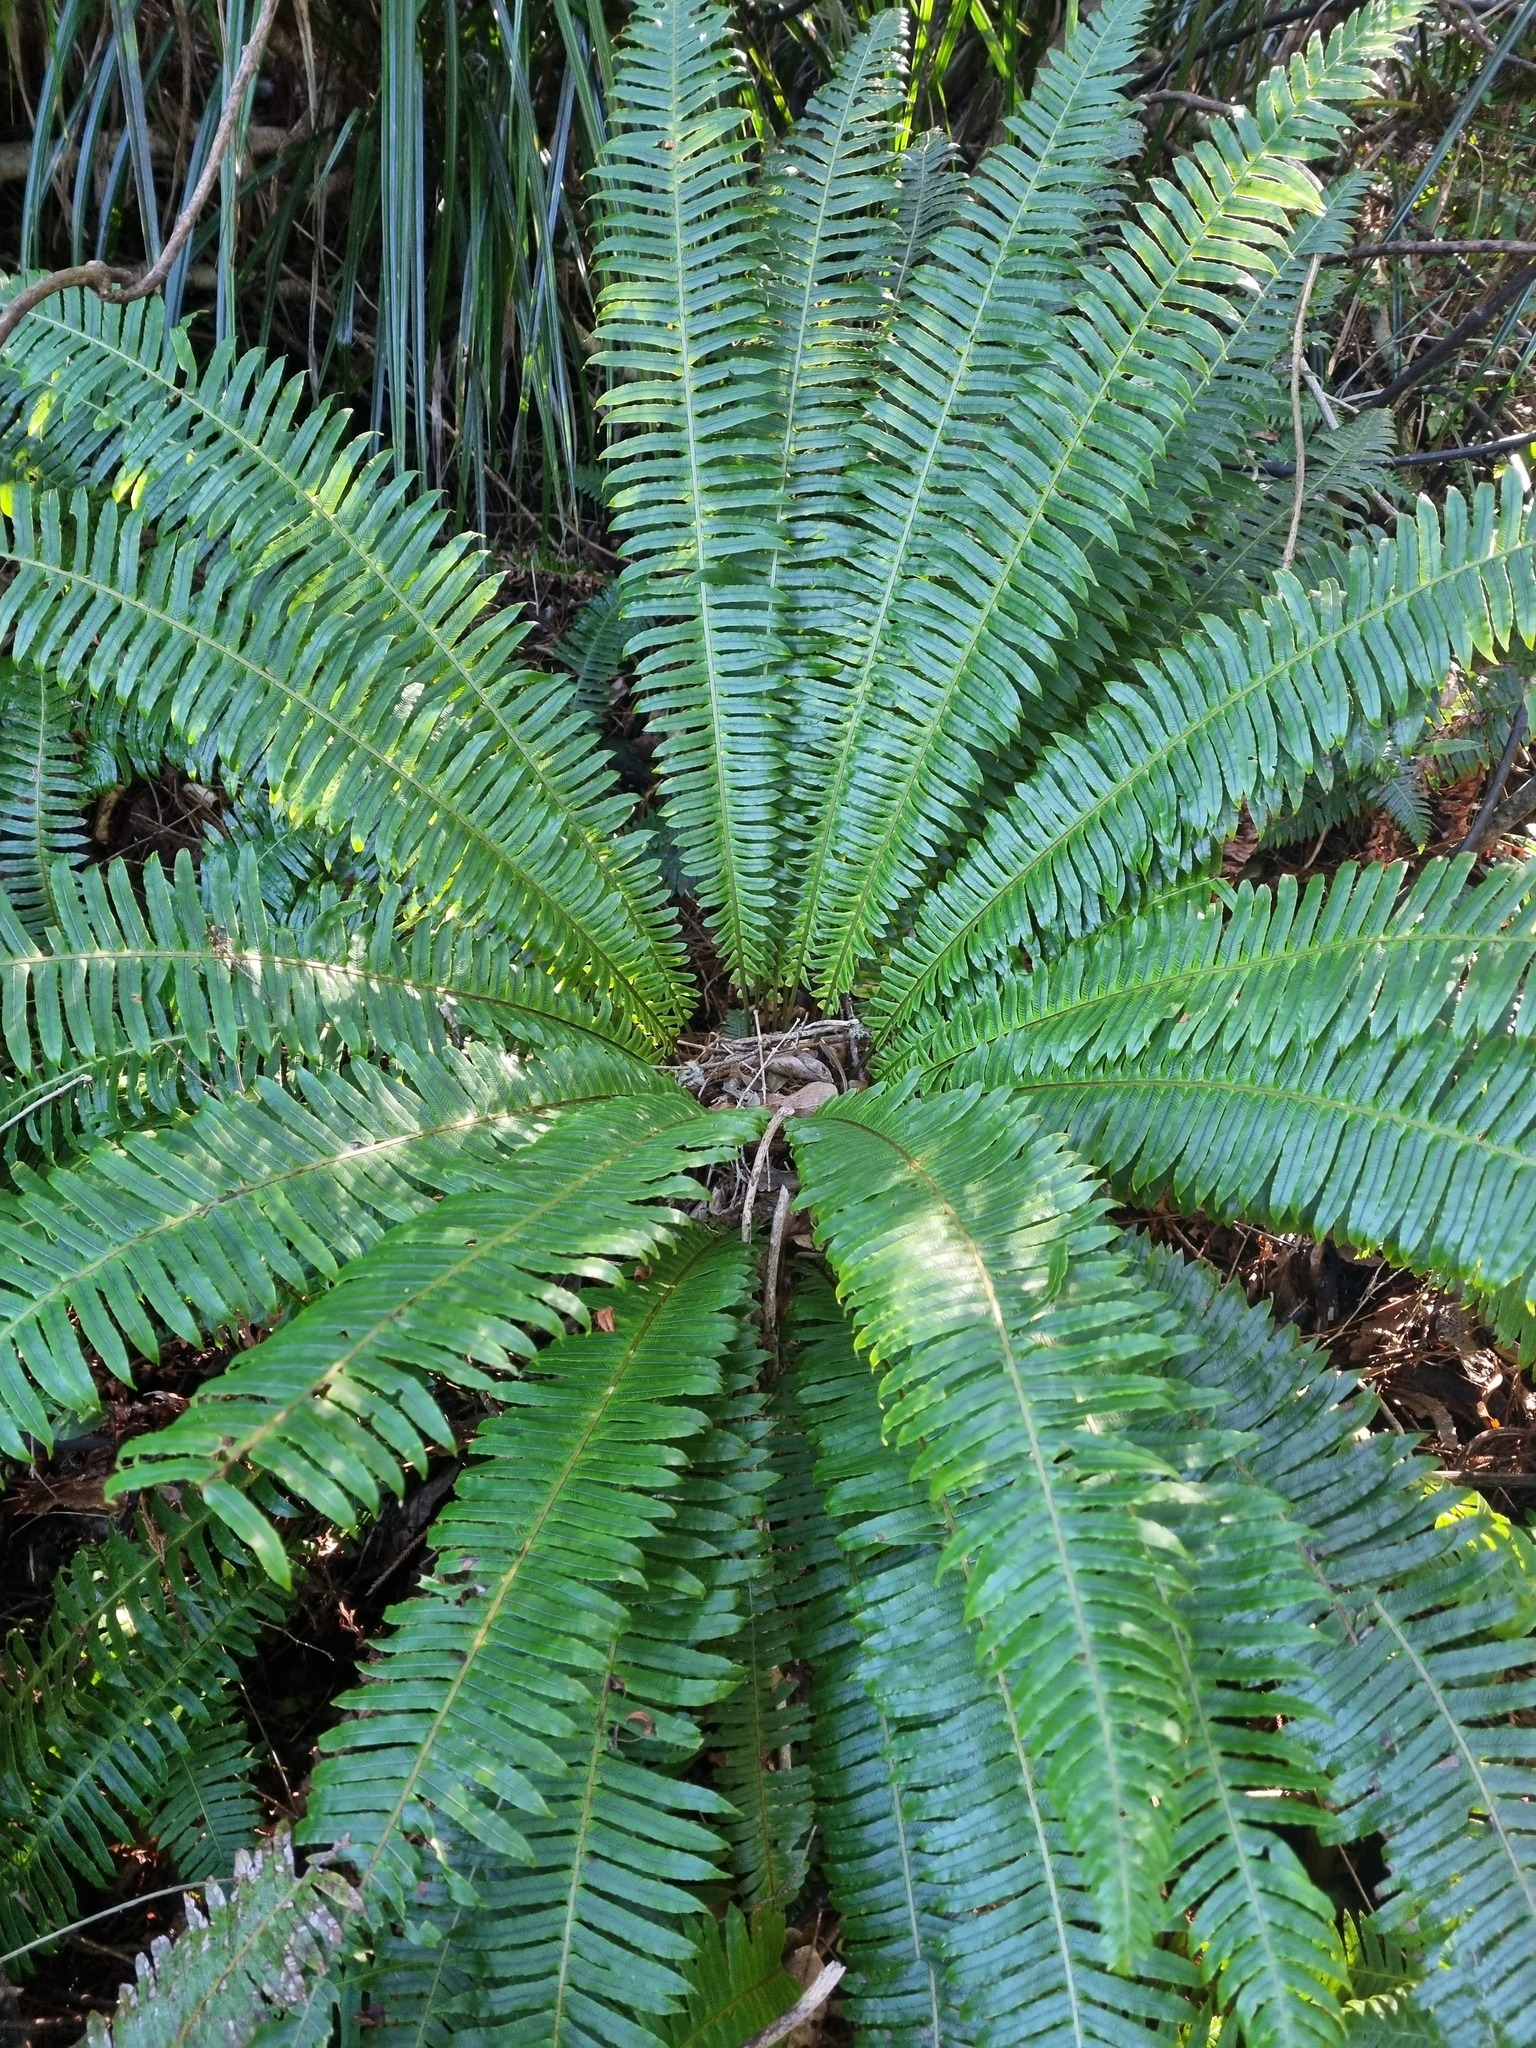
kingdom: Plantae
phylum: Tracheophyta
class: Polypodiopsida
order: Polypodiales
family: Blechnaceae
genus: Lomaria
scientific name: Lomaria discolor
